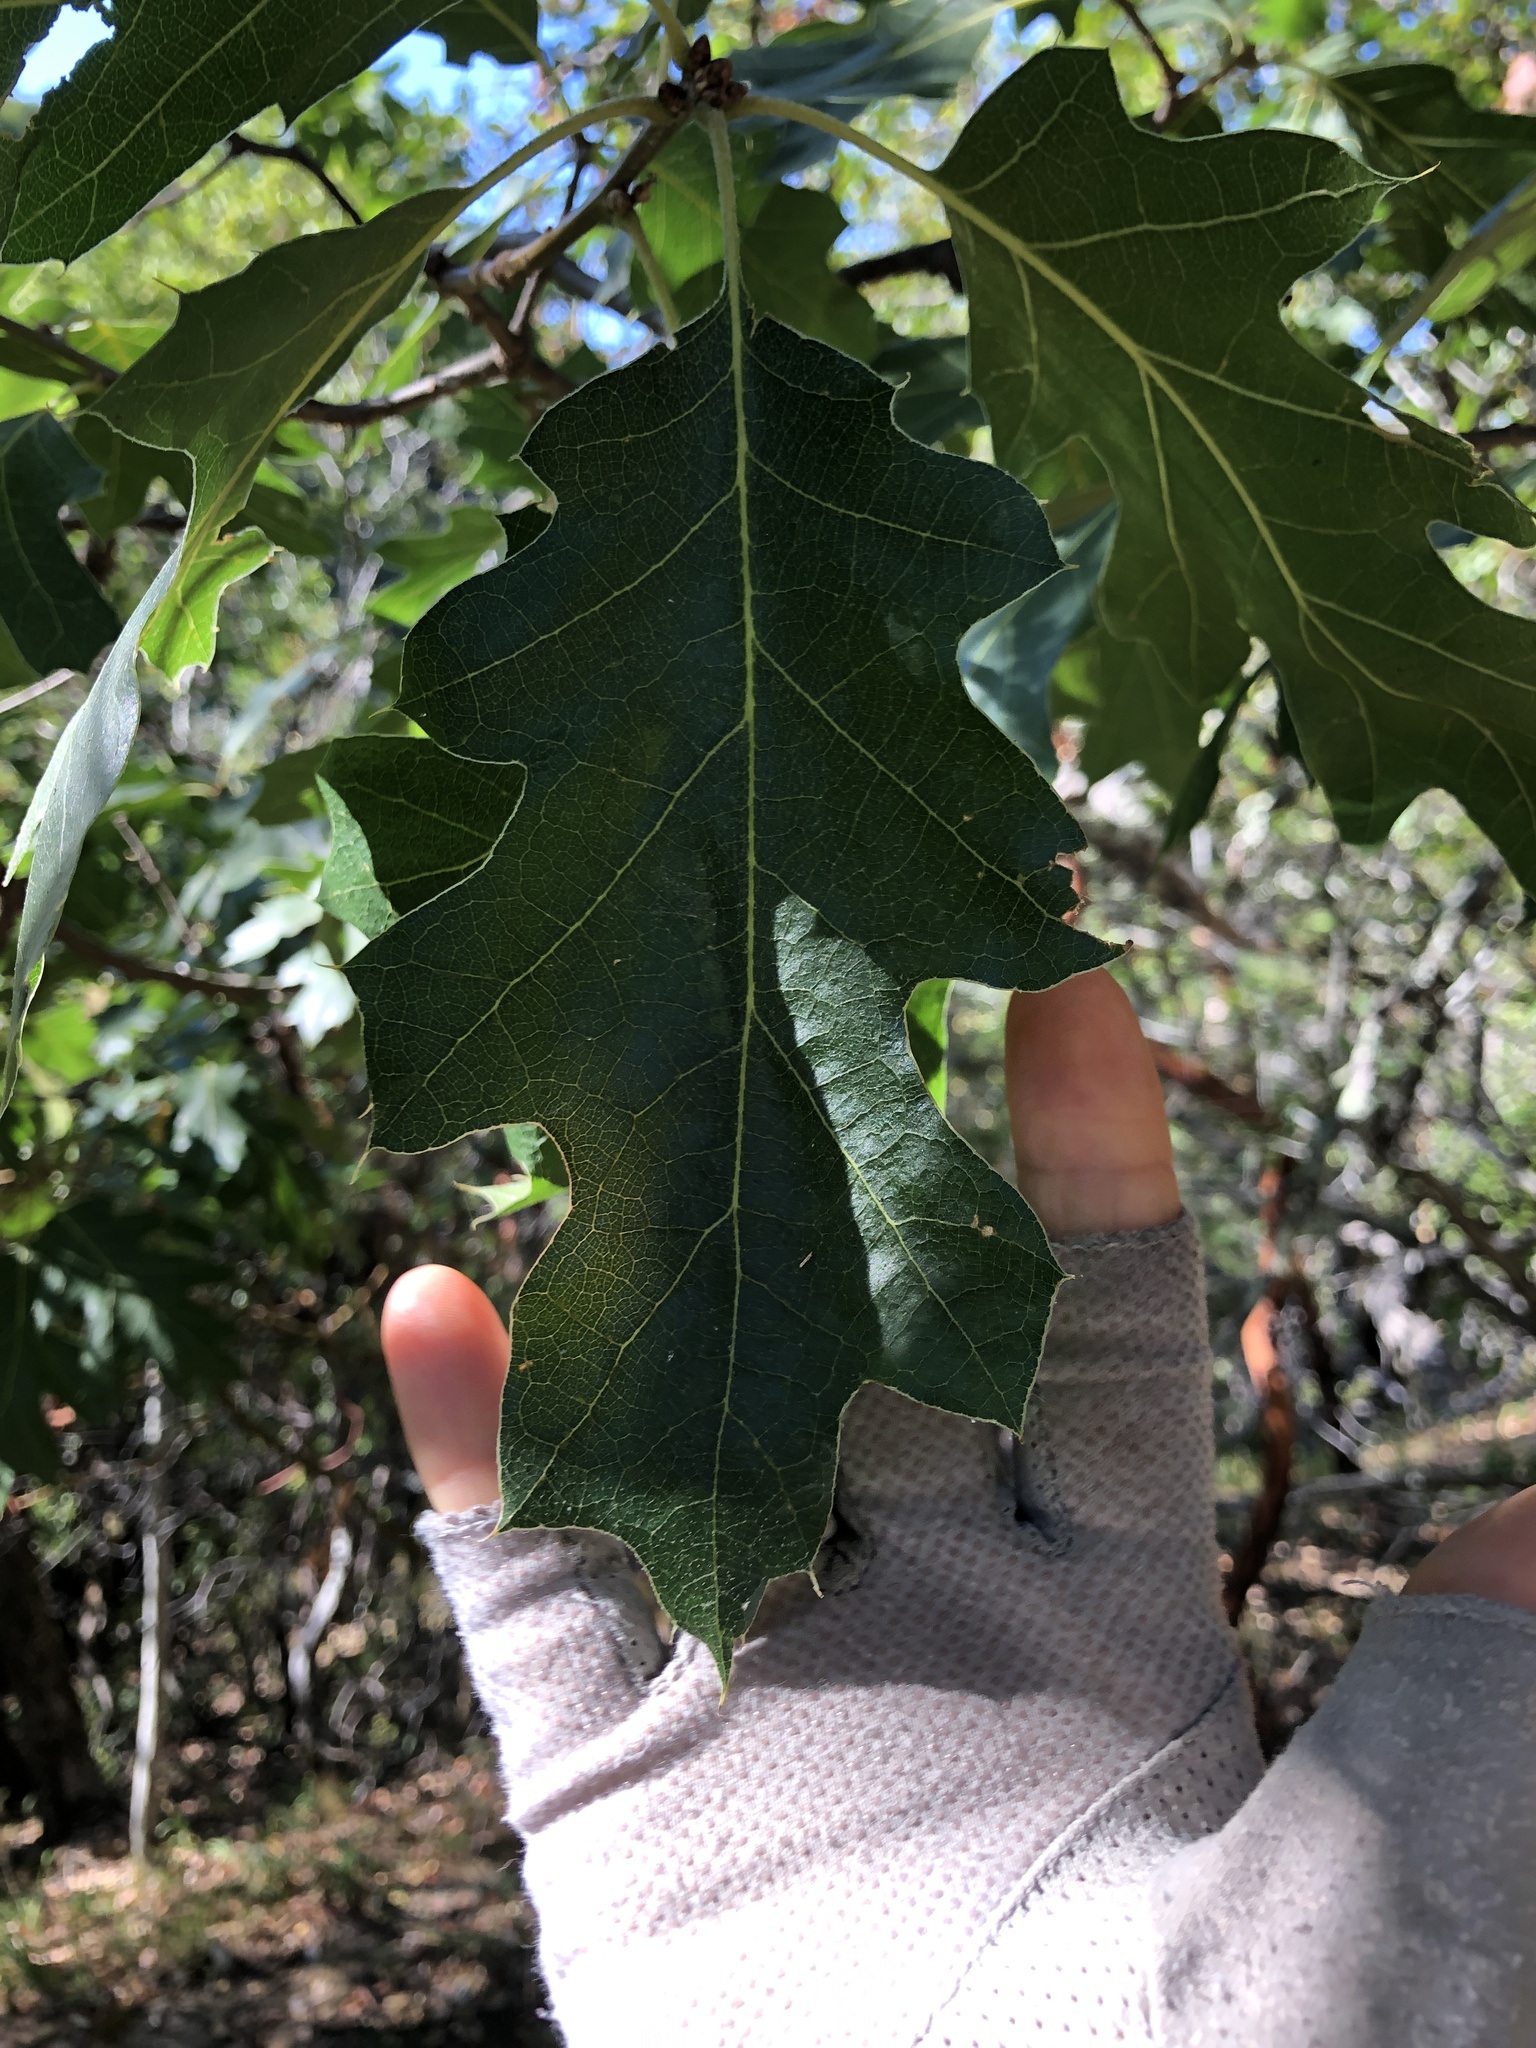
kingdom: Plantae
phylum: Tracheophyta
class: Magnoliopsida
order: Fagales
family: Fagaceae
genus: Quercus
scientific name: Quercus kelloggii
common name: California black oak
